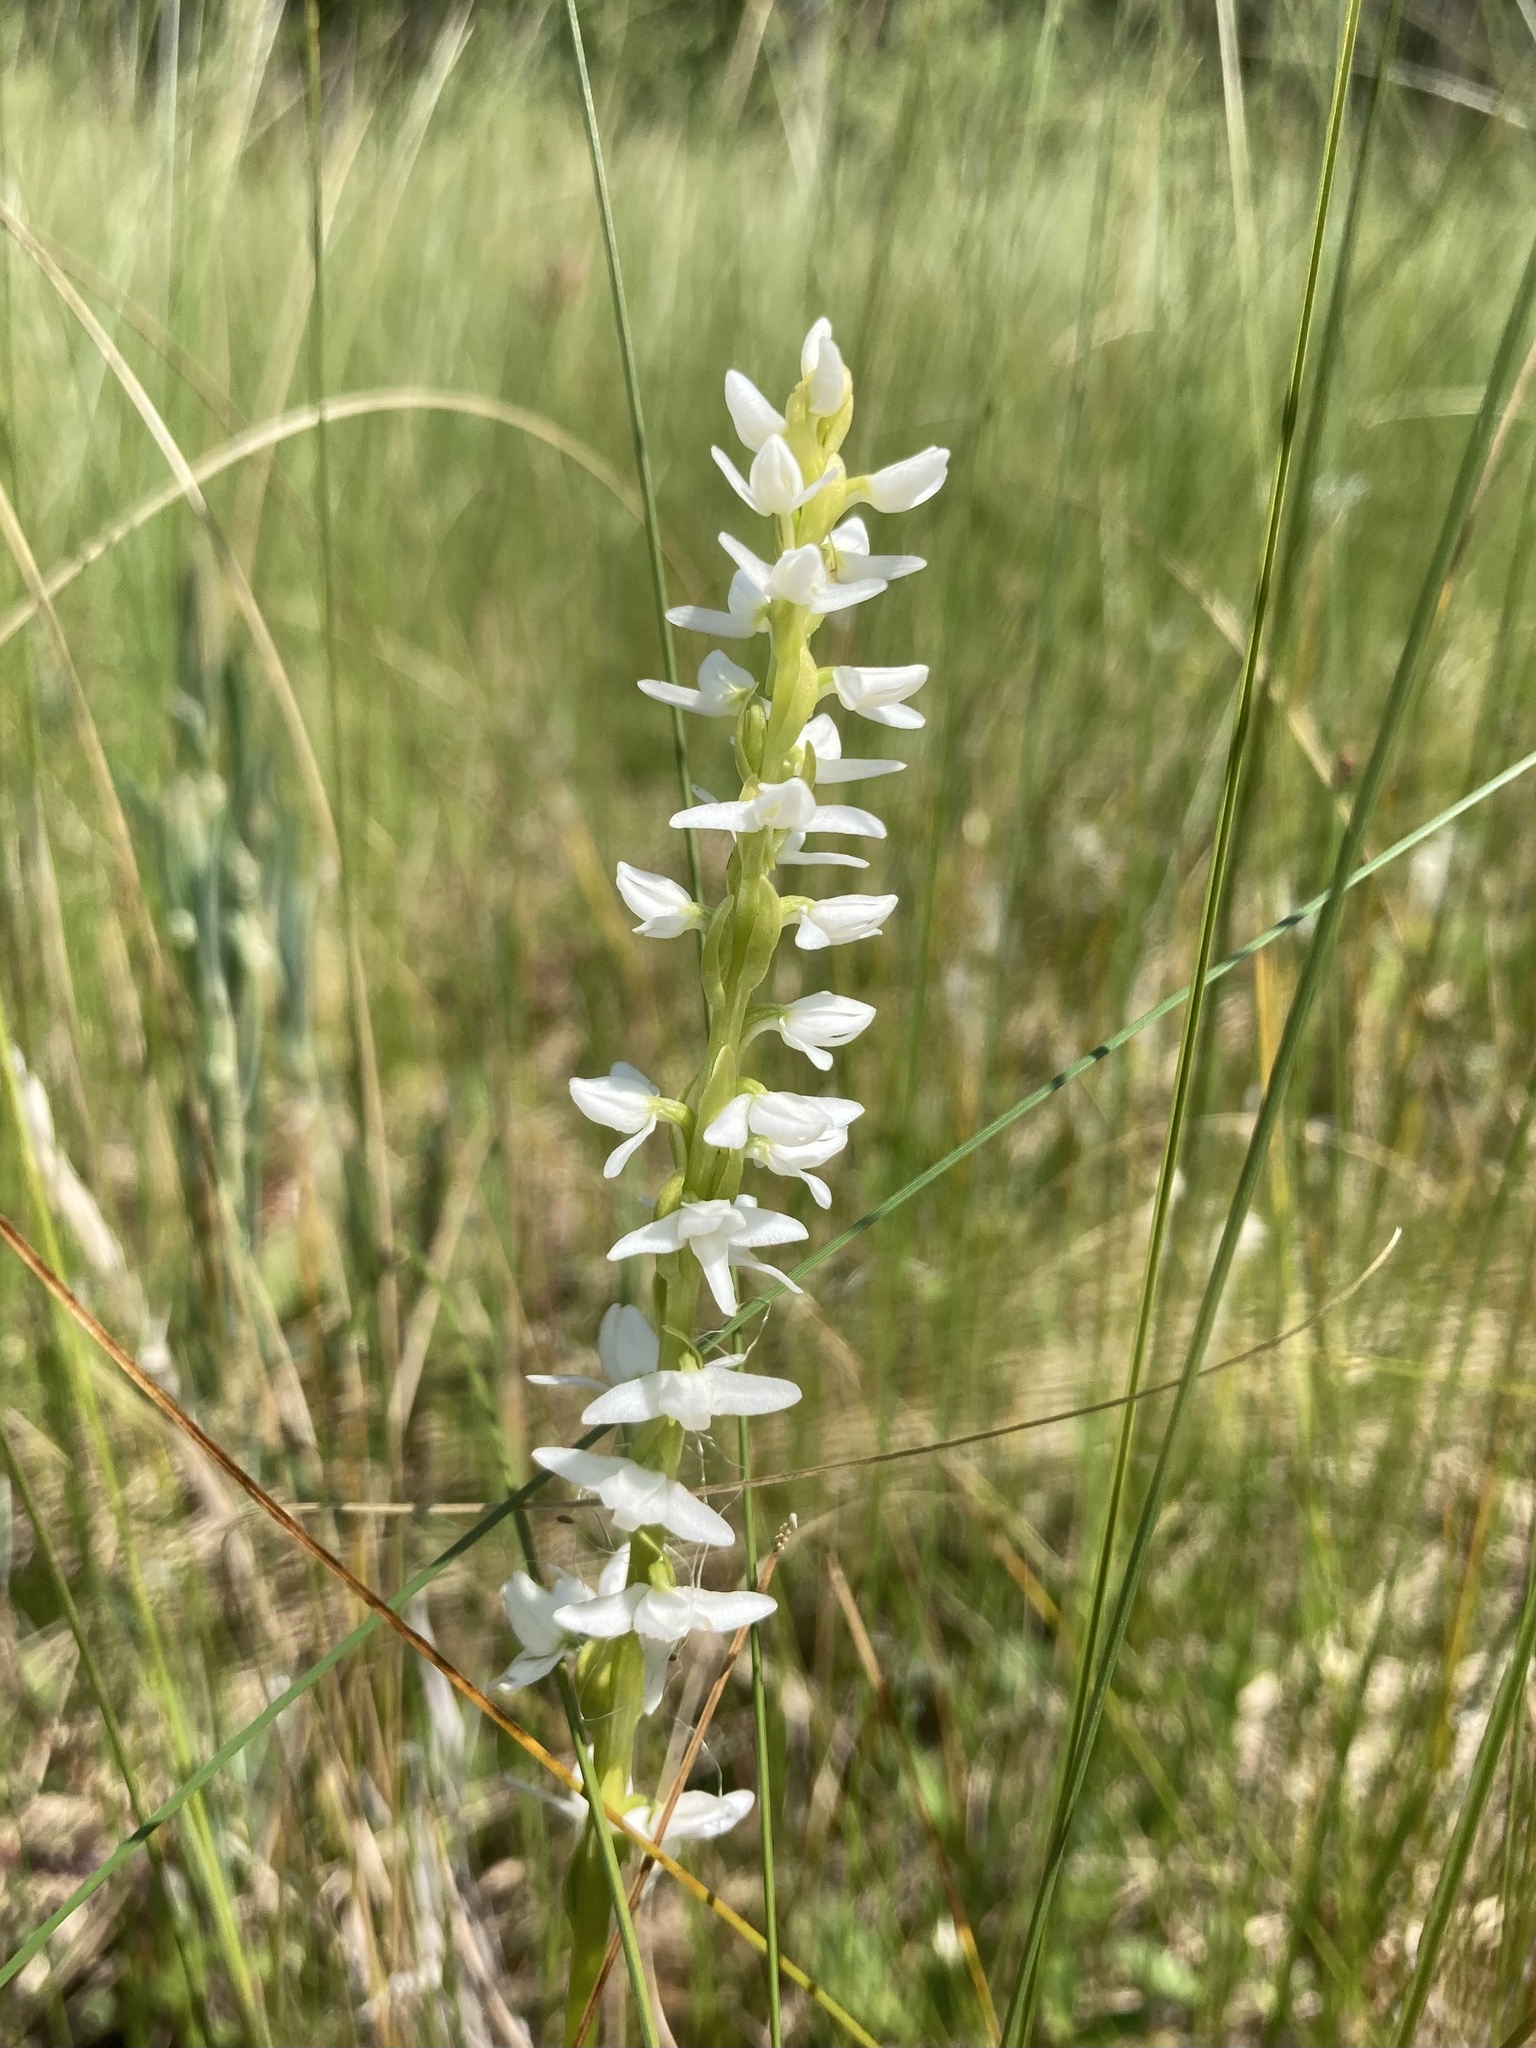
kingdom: Plantae
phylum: Tracheophyta
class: Liliopsida
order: Asparagales
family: Orchidaceae
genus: Platanthera
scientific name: Platanthera dilatata
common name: Bog candles
